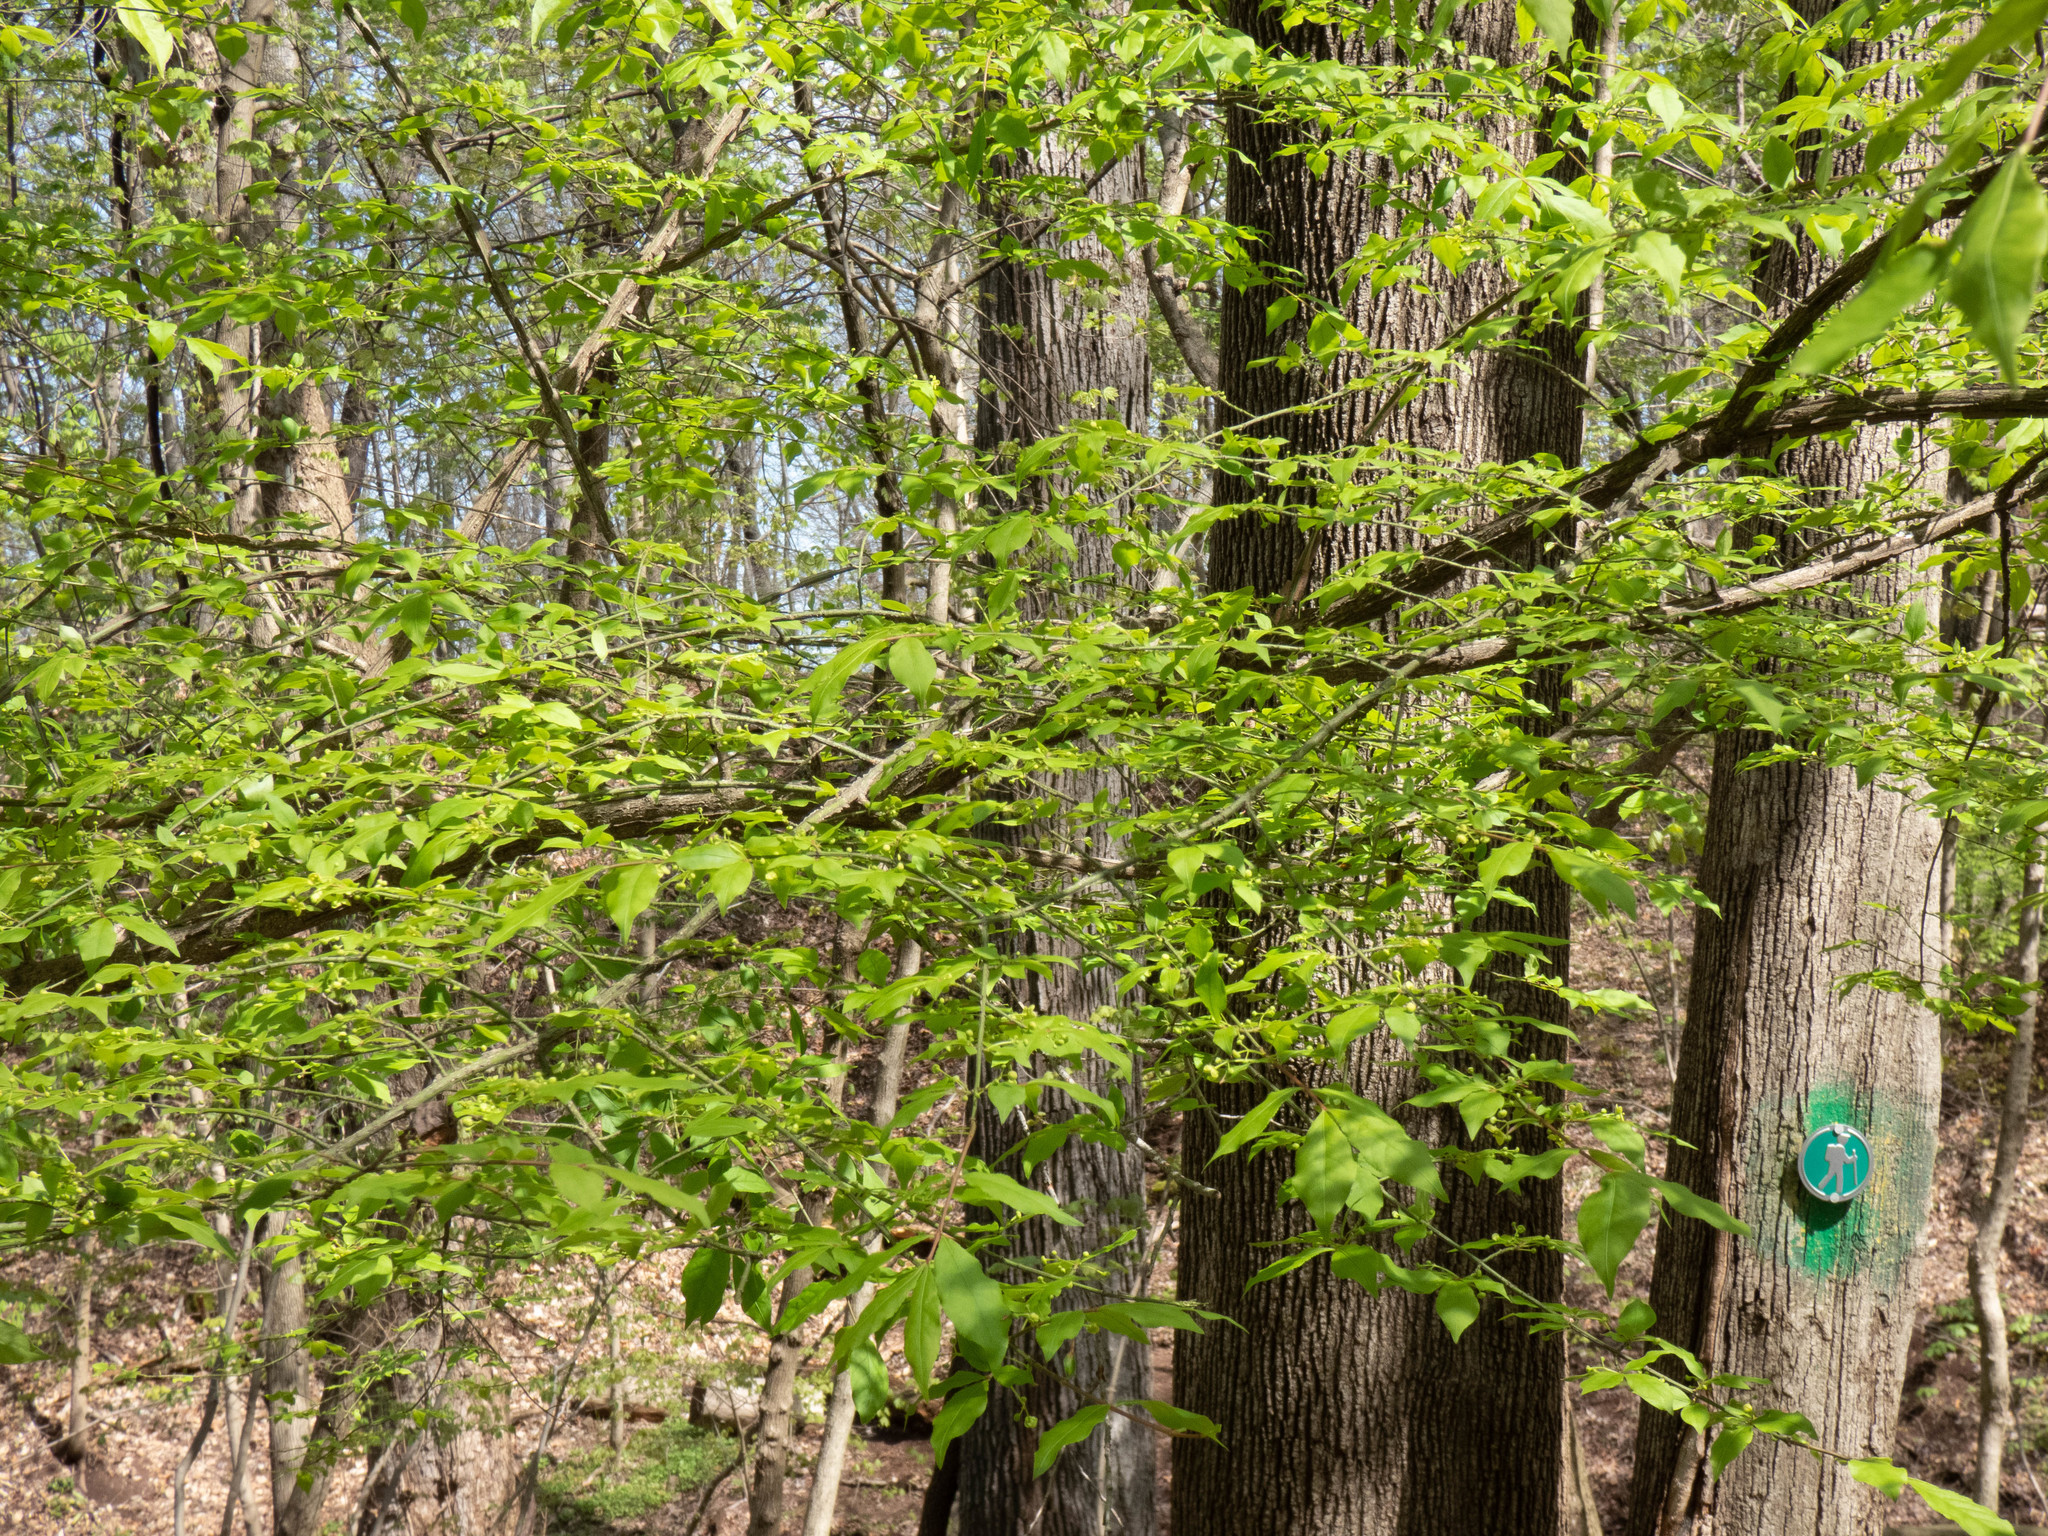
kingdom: Plantae
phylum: Tracheophyta
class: Magnoliopsida
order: Celastrales
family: Celastraceae
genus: Euonymus
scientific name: Euonymus alatus
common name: Winged euonymus
